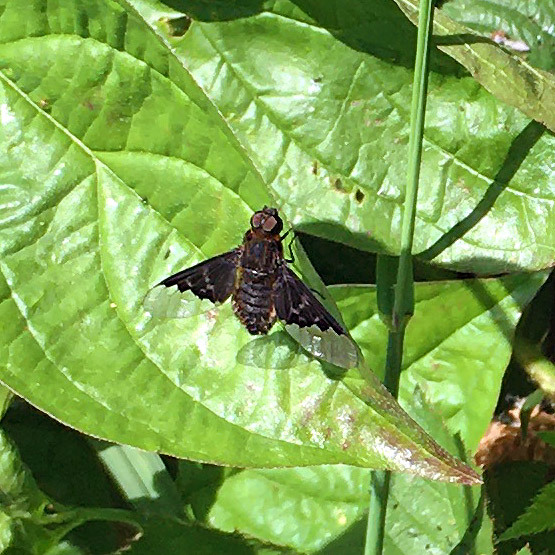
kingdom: Animalia
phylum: Arthropoda
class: Insecta
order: Diptera
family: Bombyliidae
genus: Hemipenthes
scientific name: Hemipenthes morio
